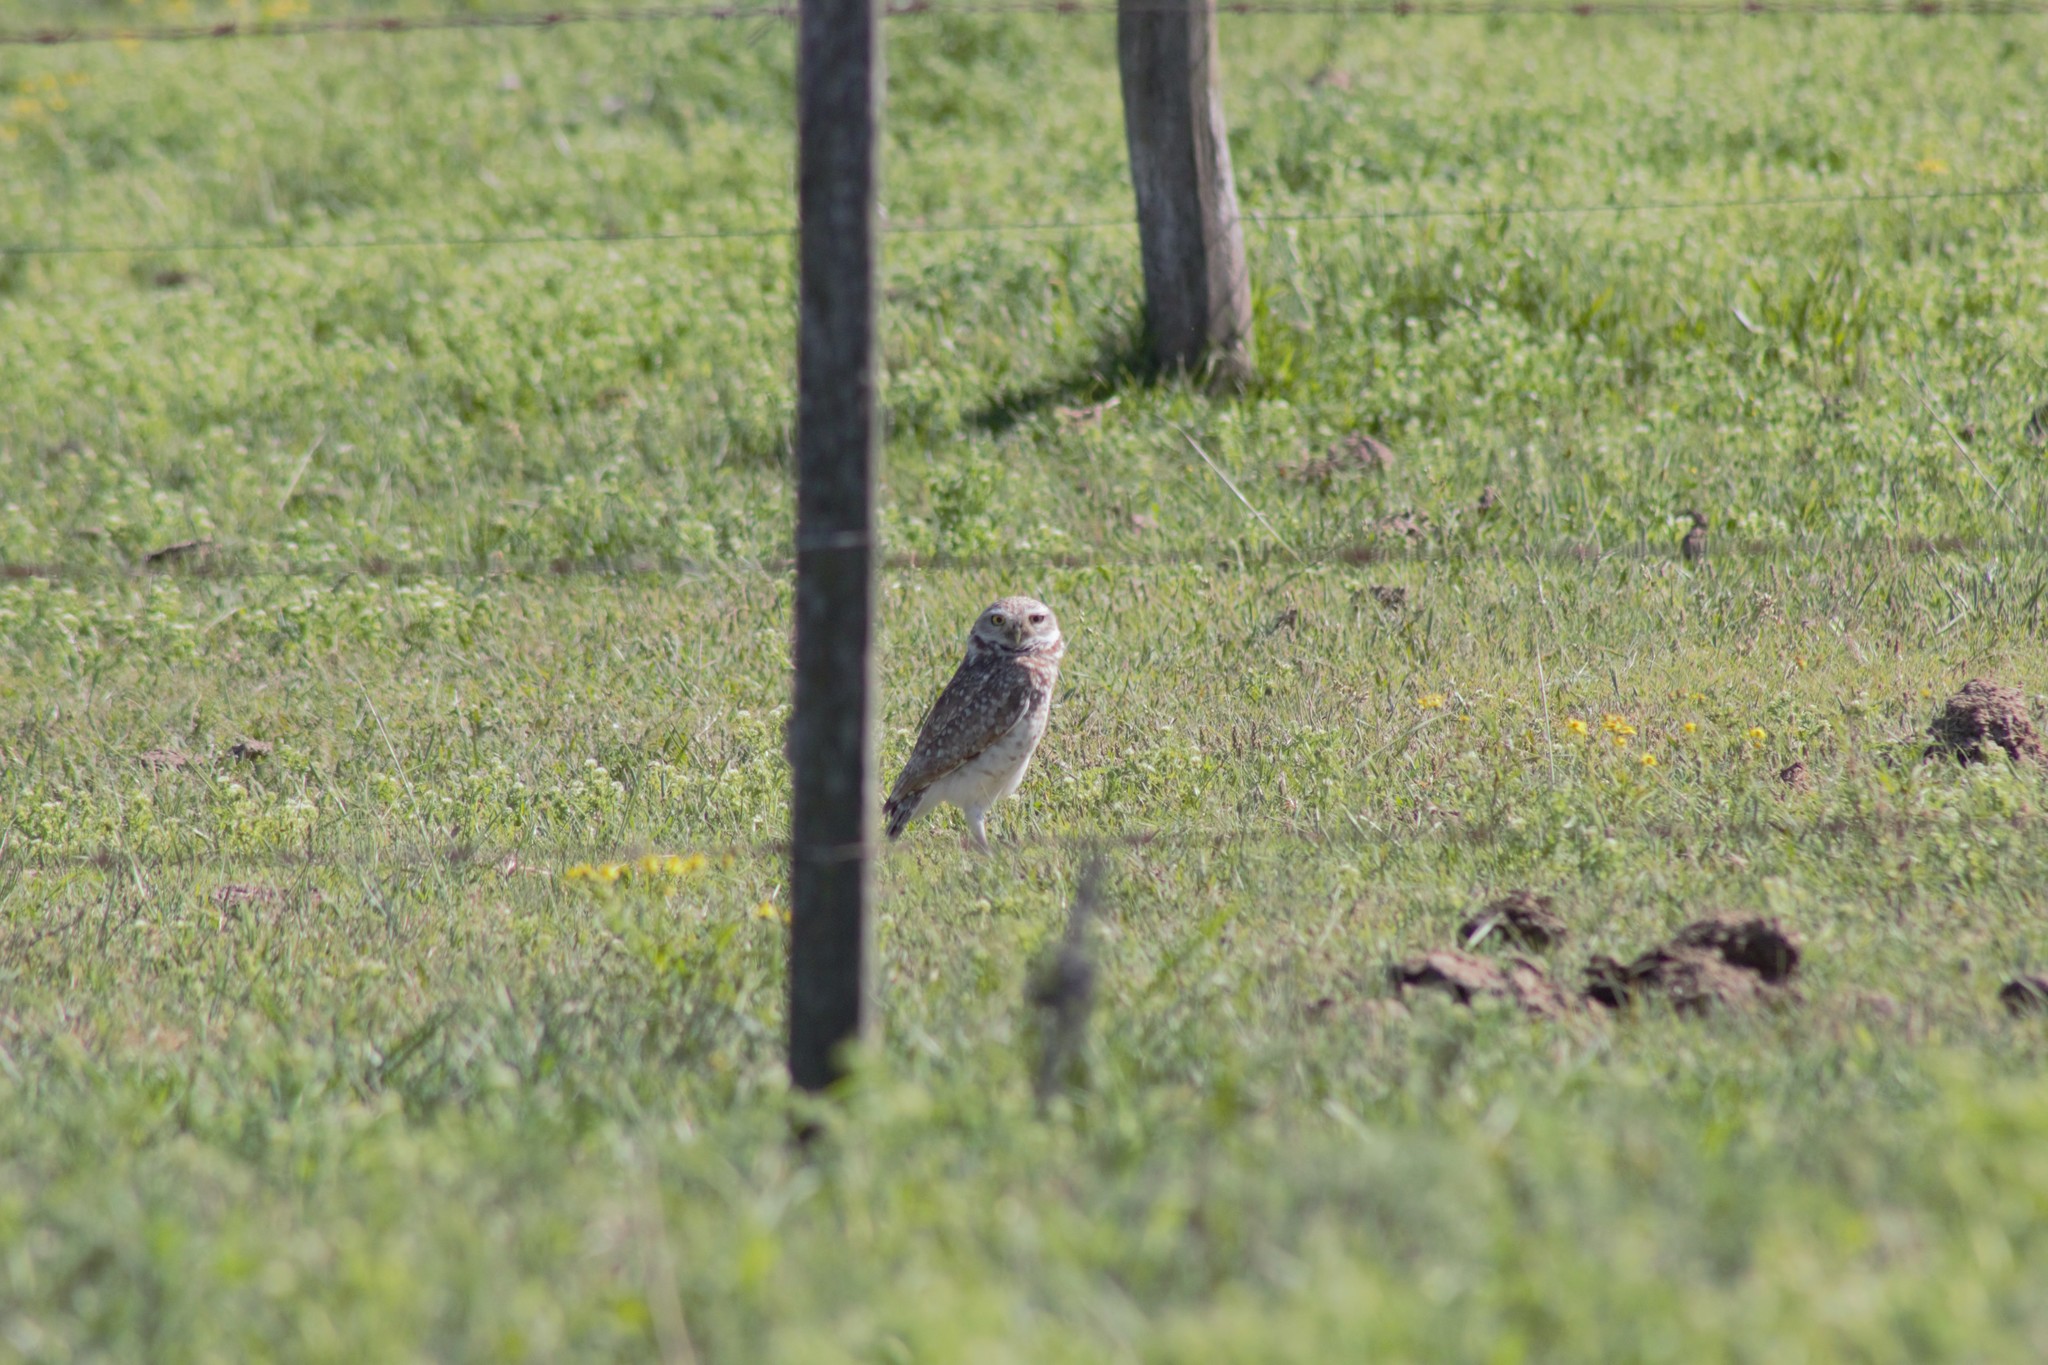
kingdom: Animalia
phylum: Chordata
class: Aves
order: Strigiformes
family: Strigidae
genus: Athene
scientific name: Athene cunicularia
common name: Burrowing owl
